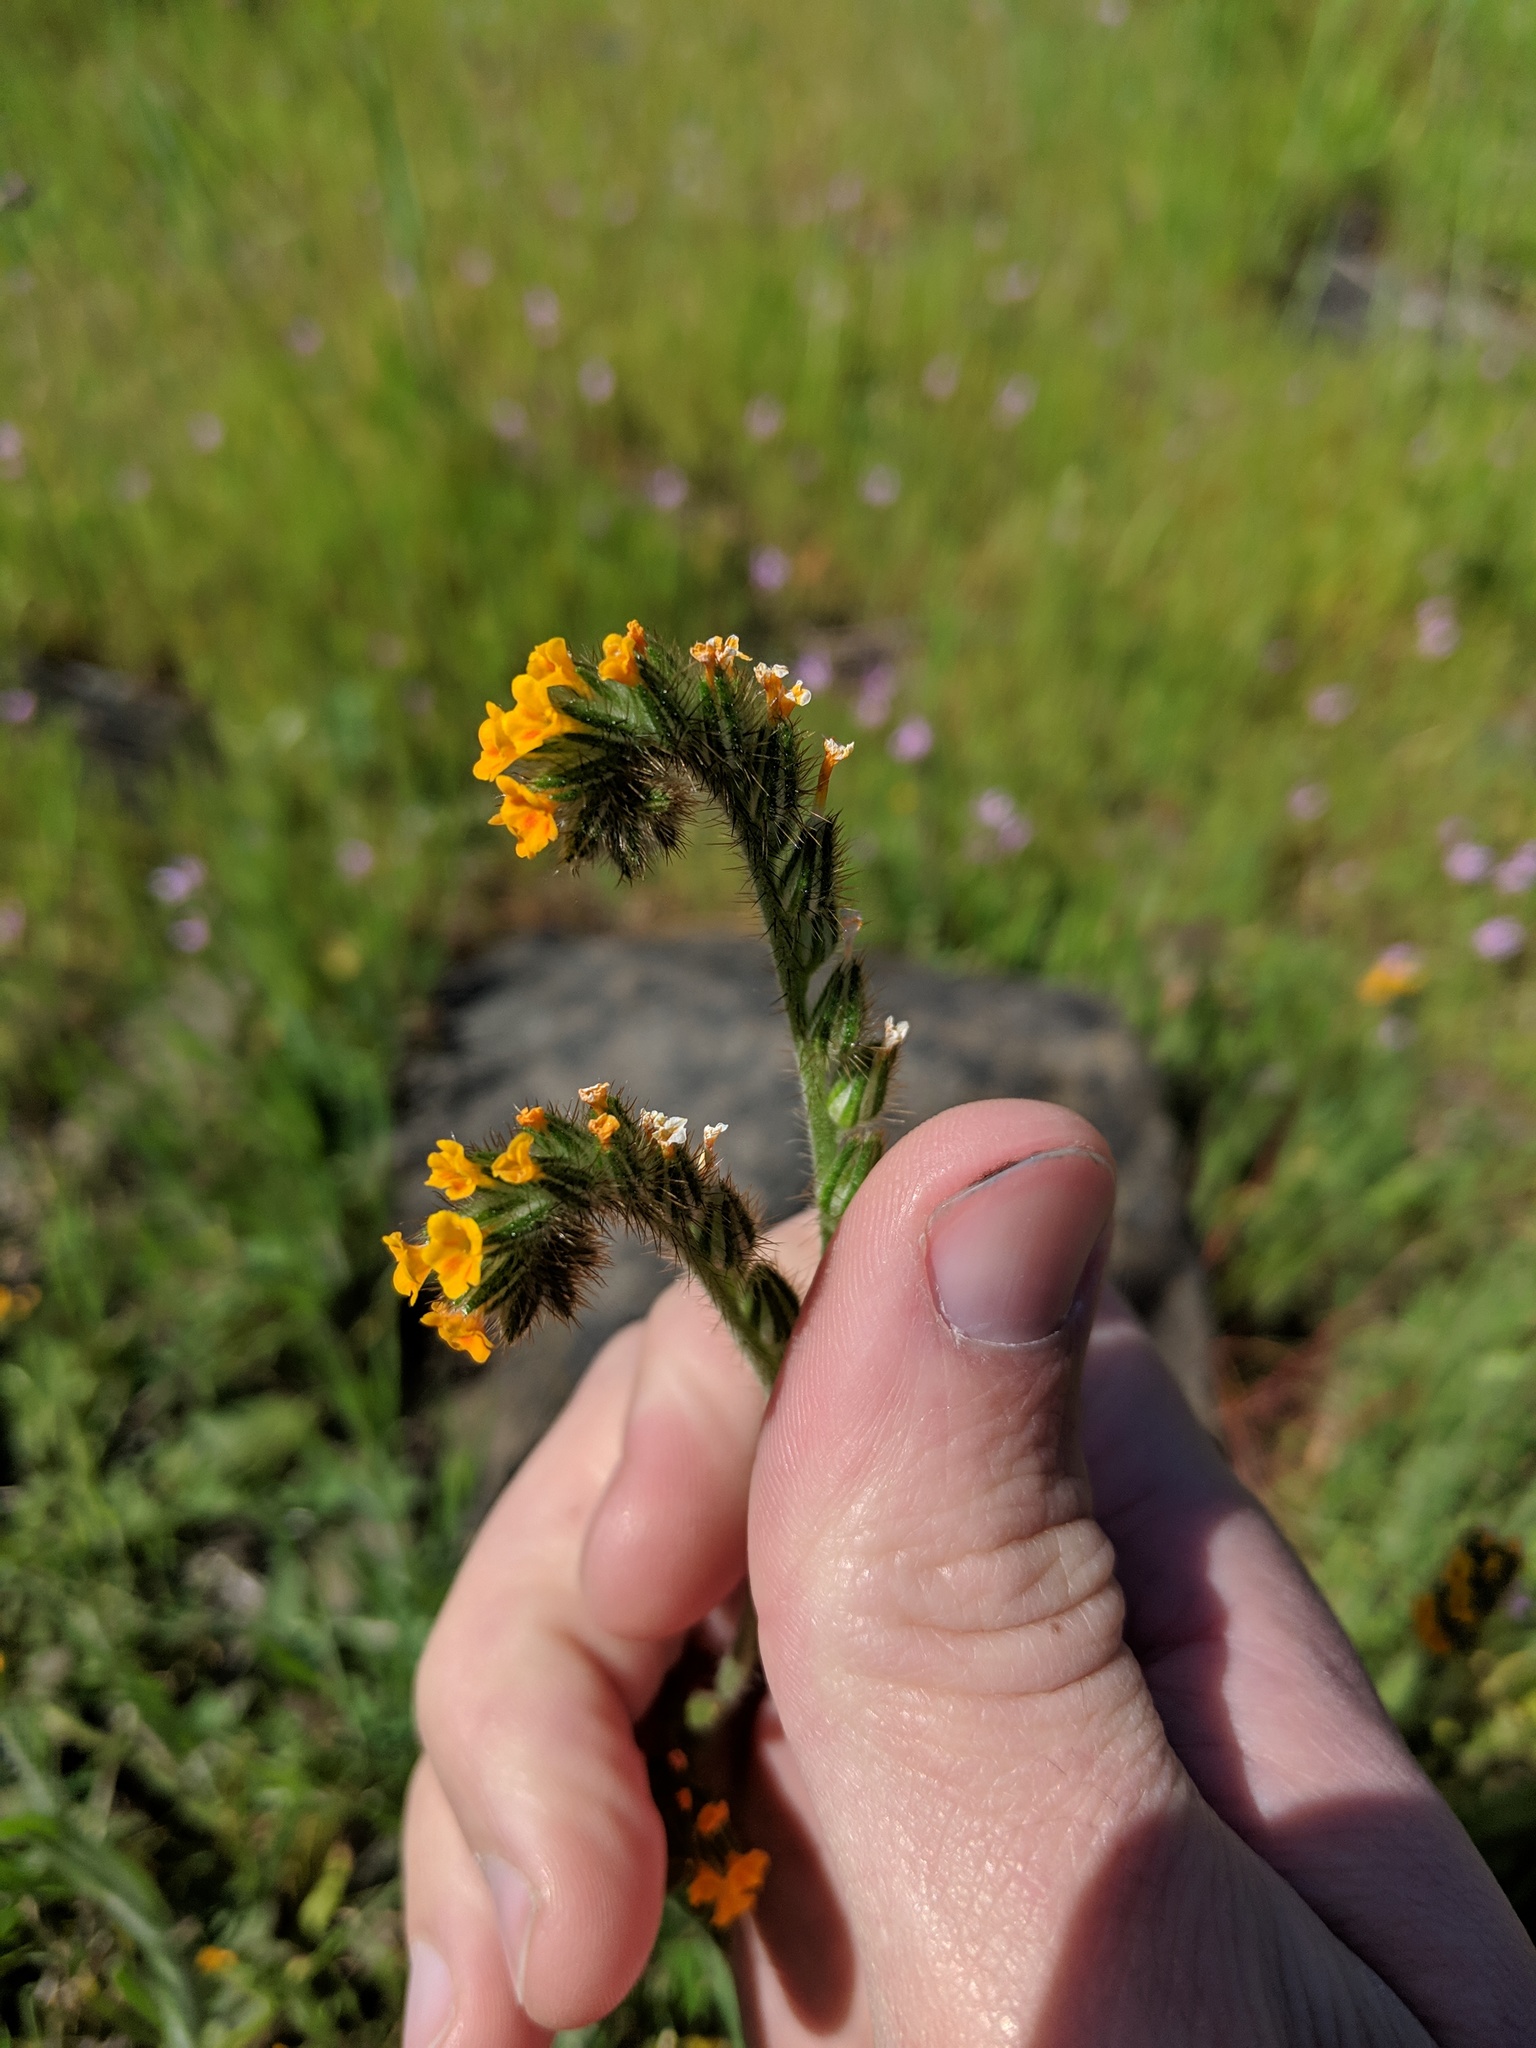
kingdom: Plantae
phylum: Tracheophyta
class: Magnoliopsida
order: Boraginales
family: Boraginaceae
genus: Amsinckia
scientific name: Amsinckia menziesii
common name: Menzies' fiddleneck
